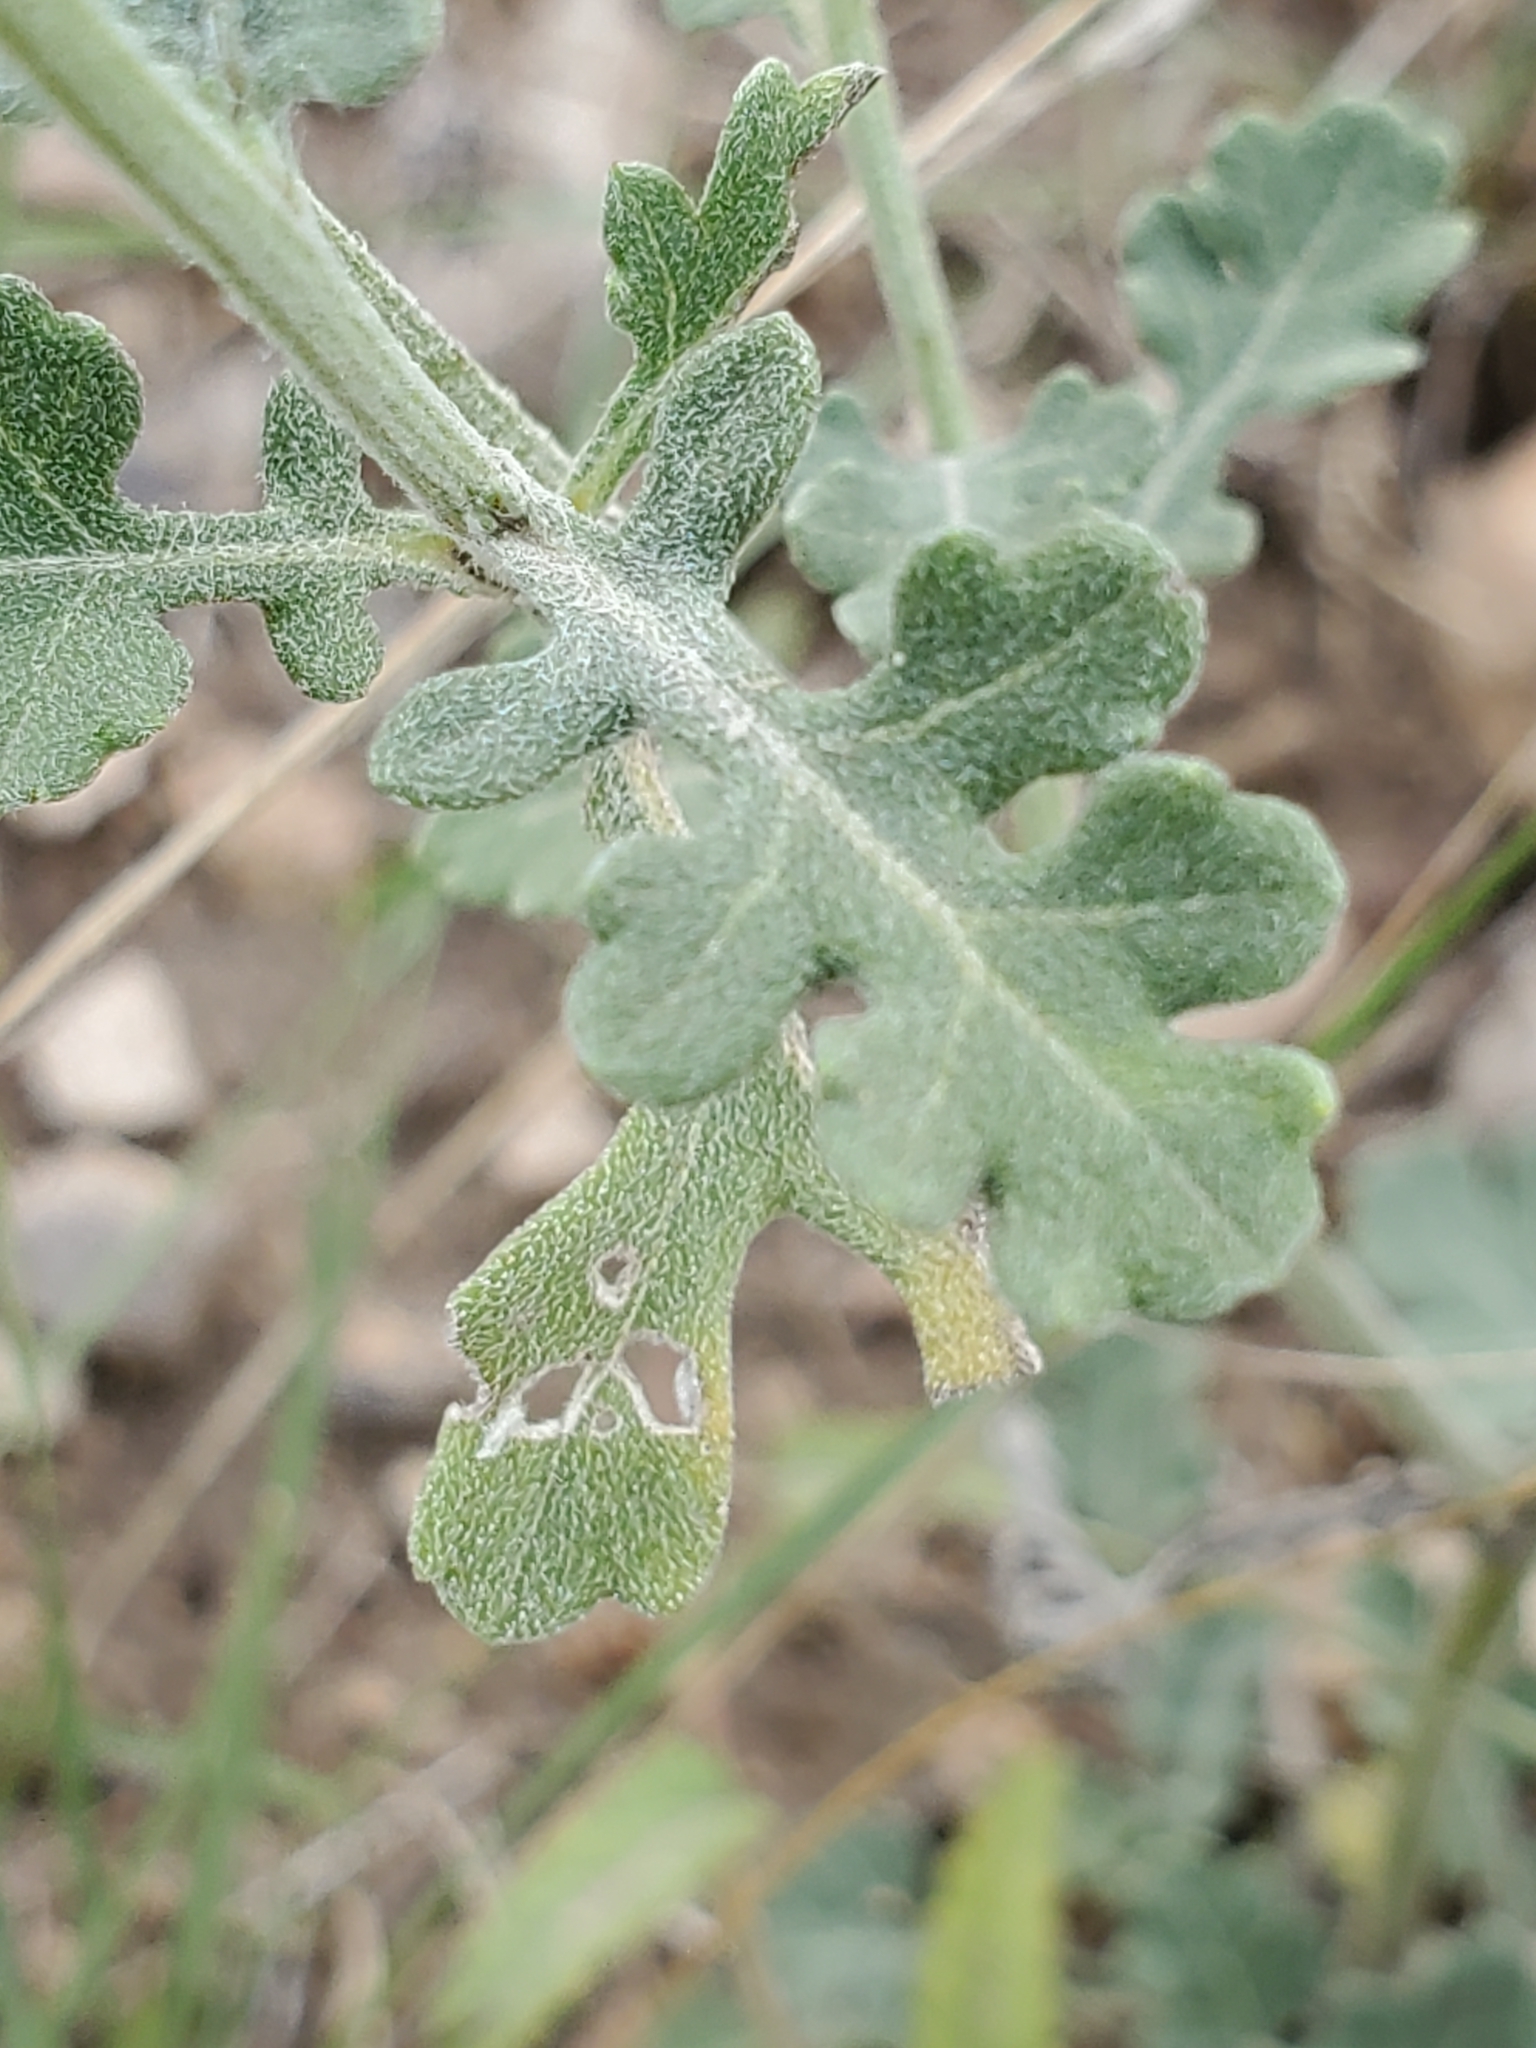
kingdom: Plantae
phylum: Tracheophyta
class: Magnoliopsida
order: Asterales
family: Asteraceae
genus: Parthenium
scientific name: Parthenium confertum
